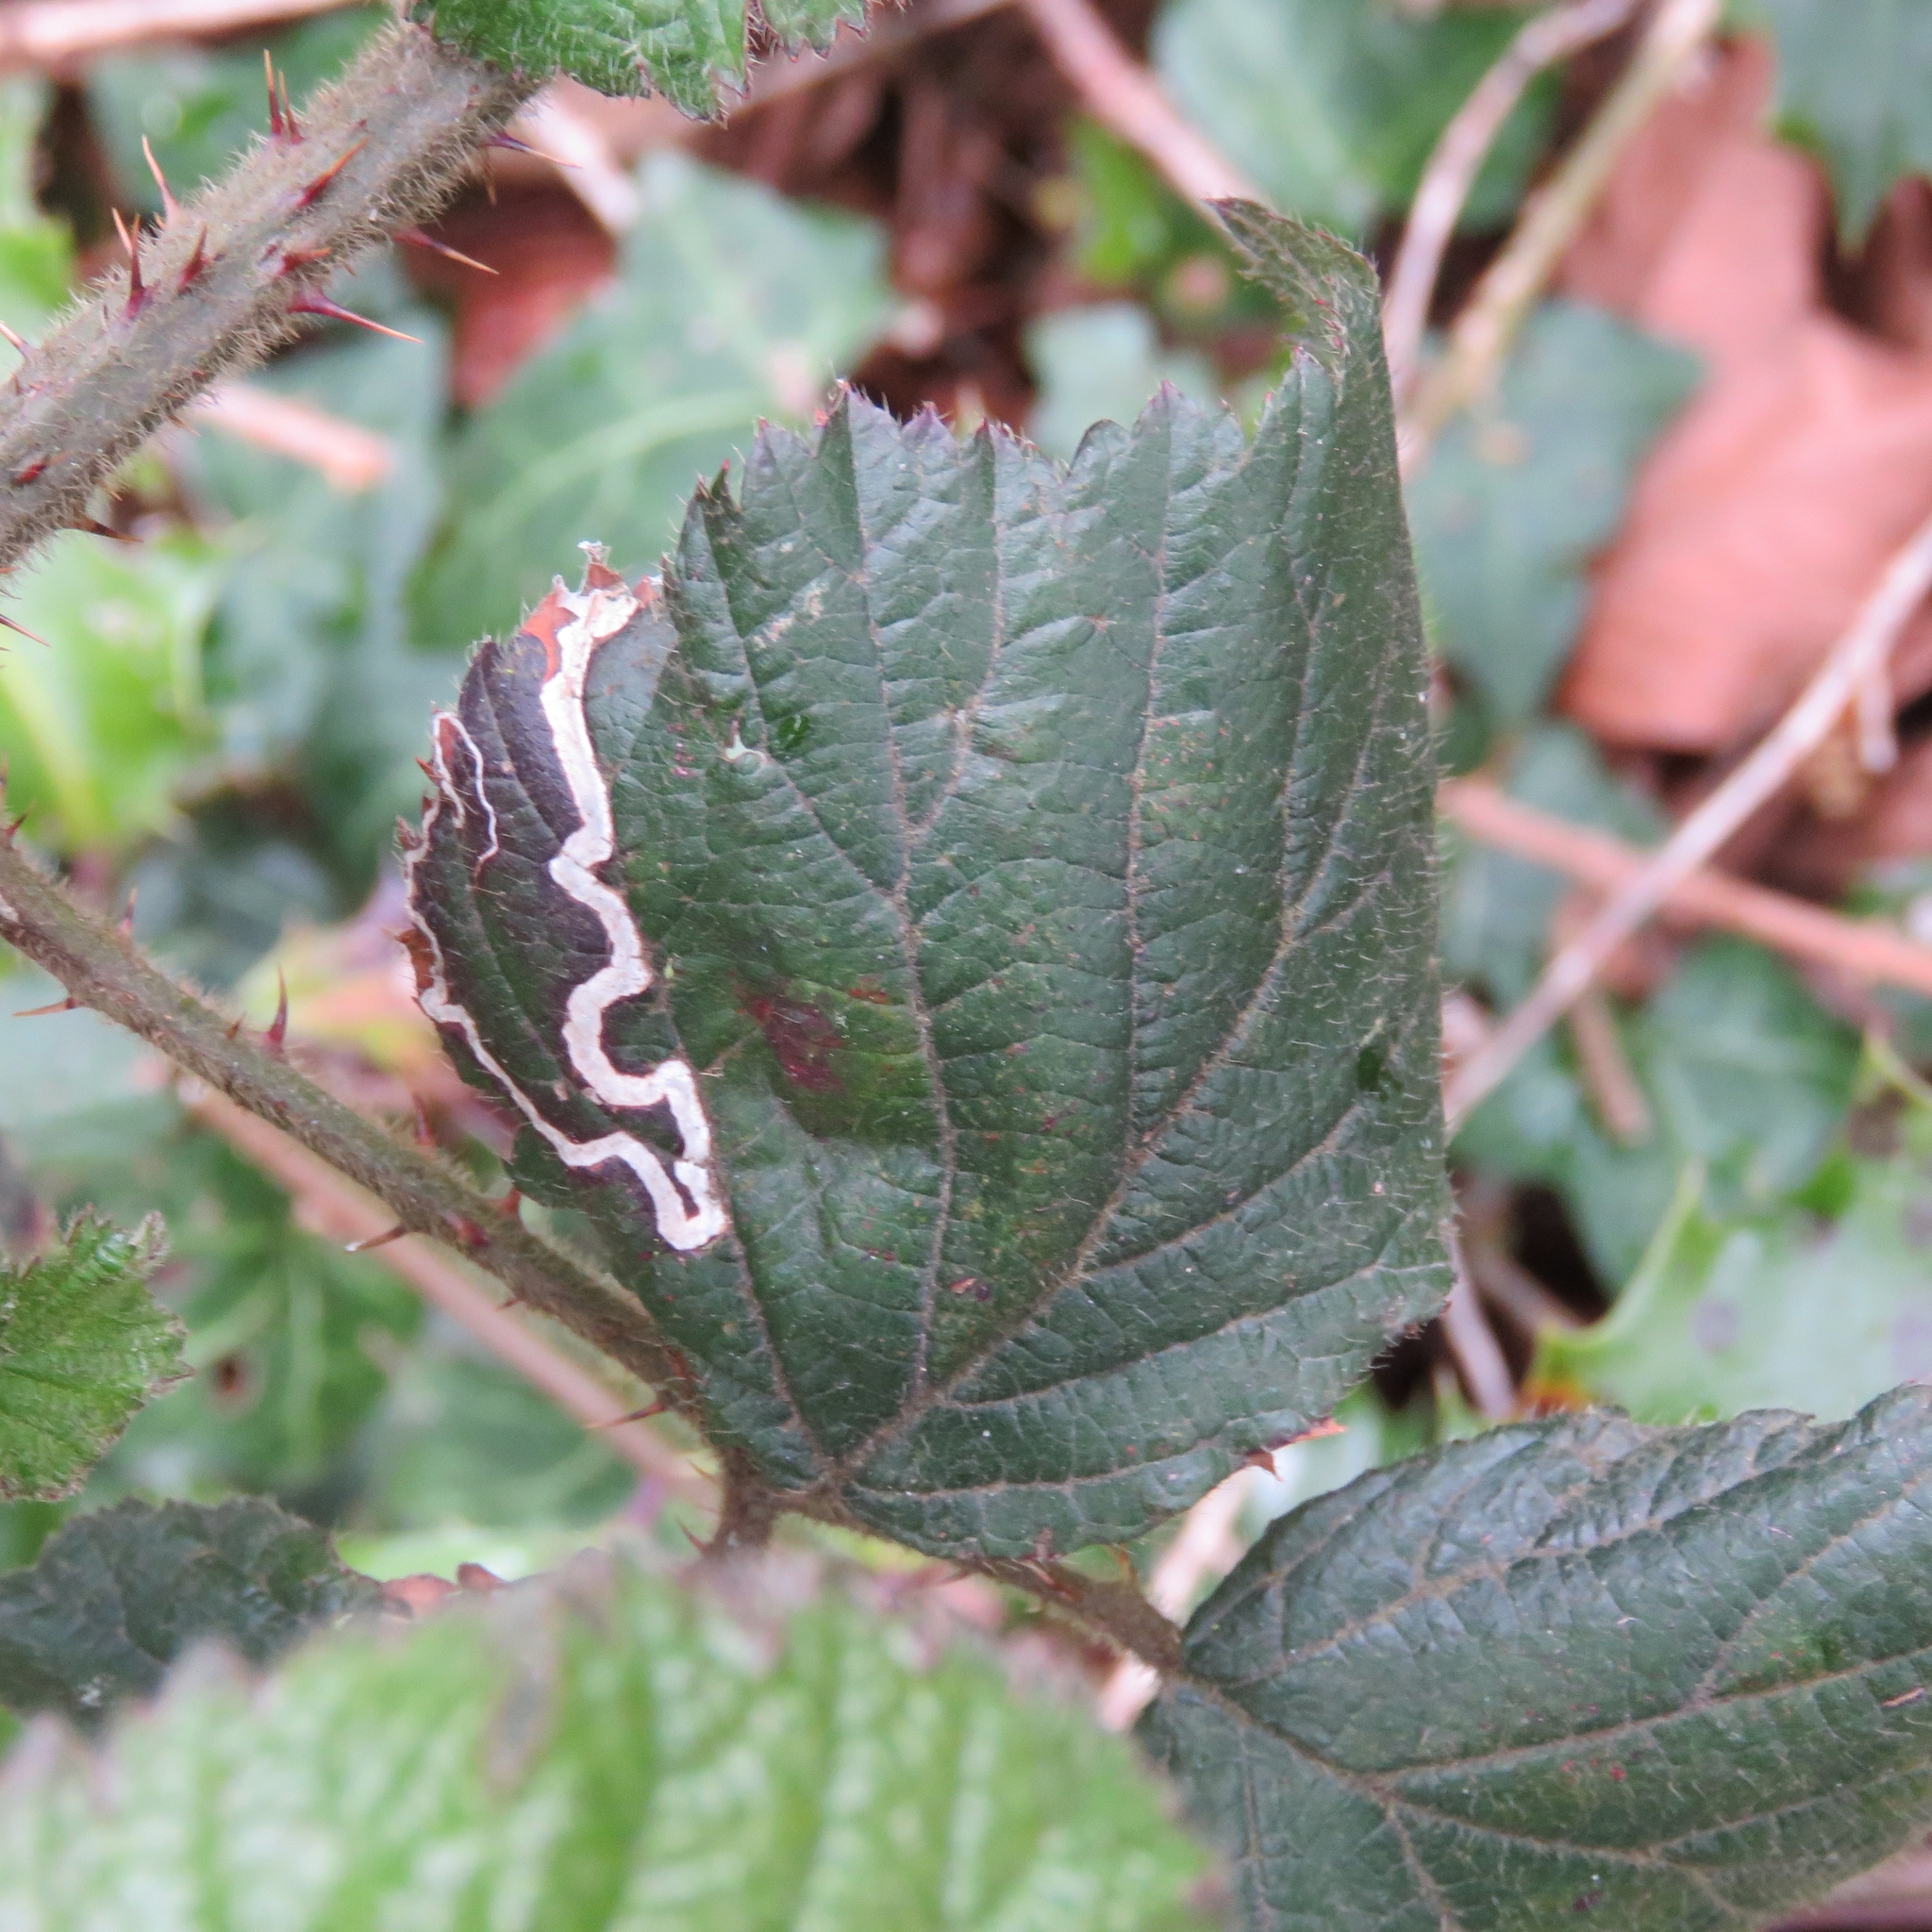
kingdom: Animalia
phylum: Arthropoda
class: Insecta
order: Lepidoptera
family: Nepticulidae
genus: Stigmella
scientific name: Stigmella aurella
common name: Golden pigmy
